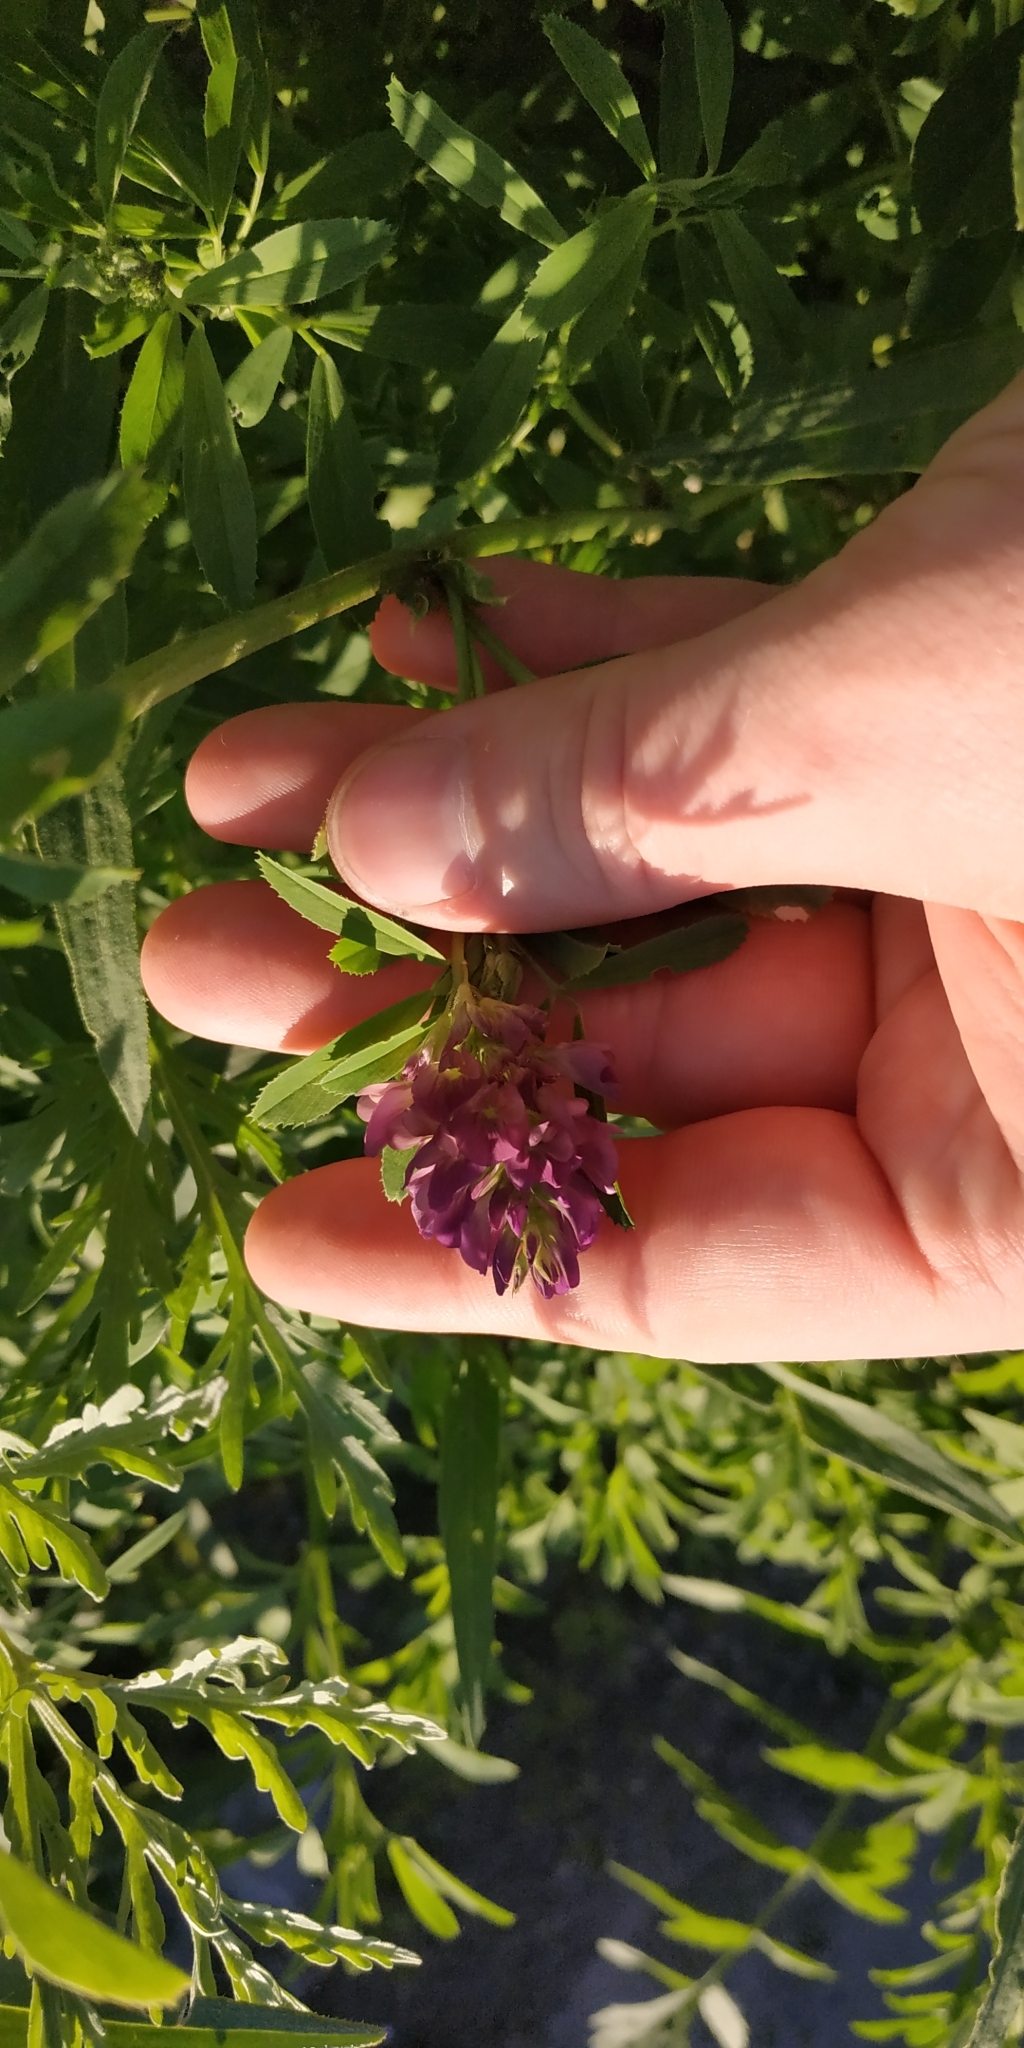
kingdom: Plantae
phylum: Tracheophyta
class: Magnoliopsida
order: Fabales
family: Fabaceae
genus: Medicago
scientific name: Medicago varia
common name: Sand lucerne
